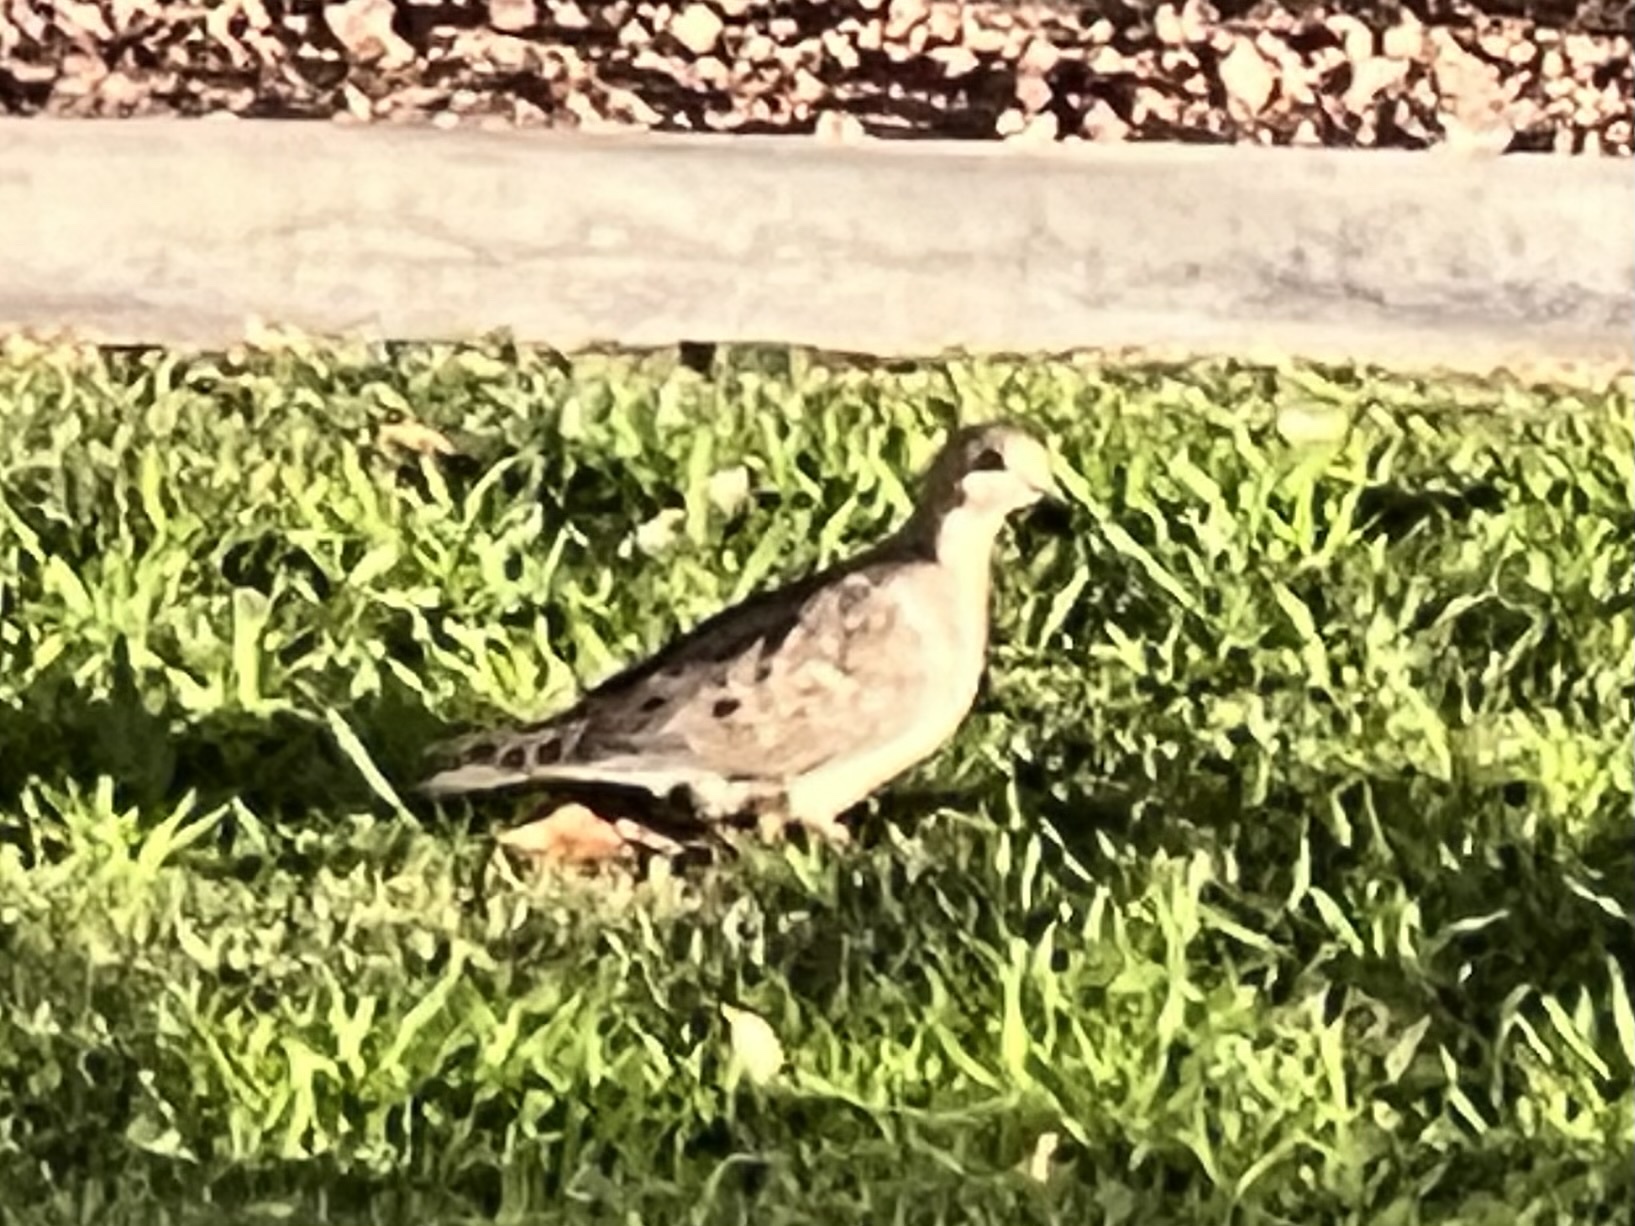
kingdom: Animalia
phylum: Chordata
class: Aves
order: Columbiformes
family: Columbidae
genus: Zenaida
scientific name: Zenaida macroura
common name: Mourning dove
